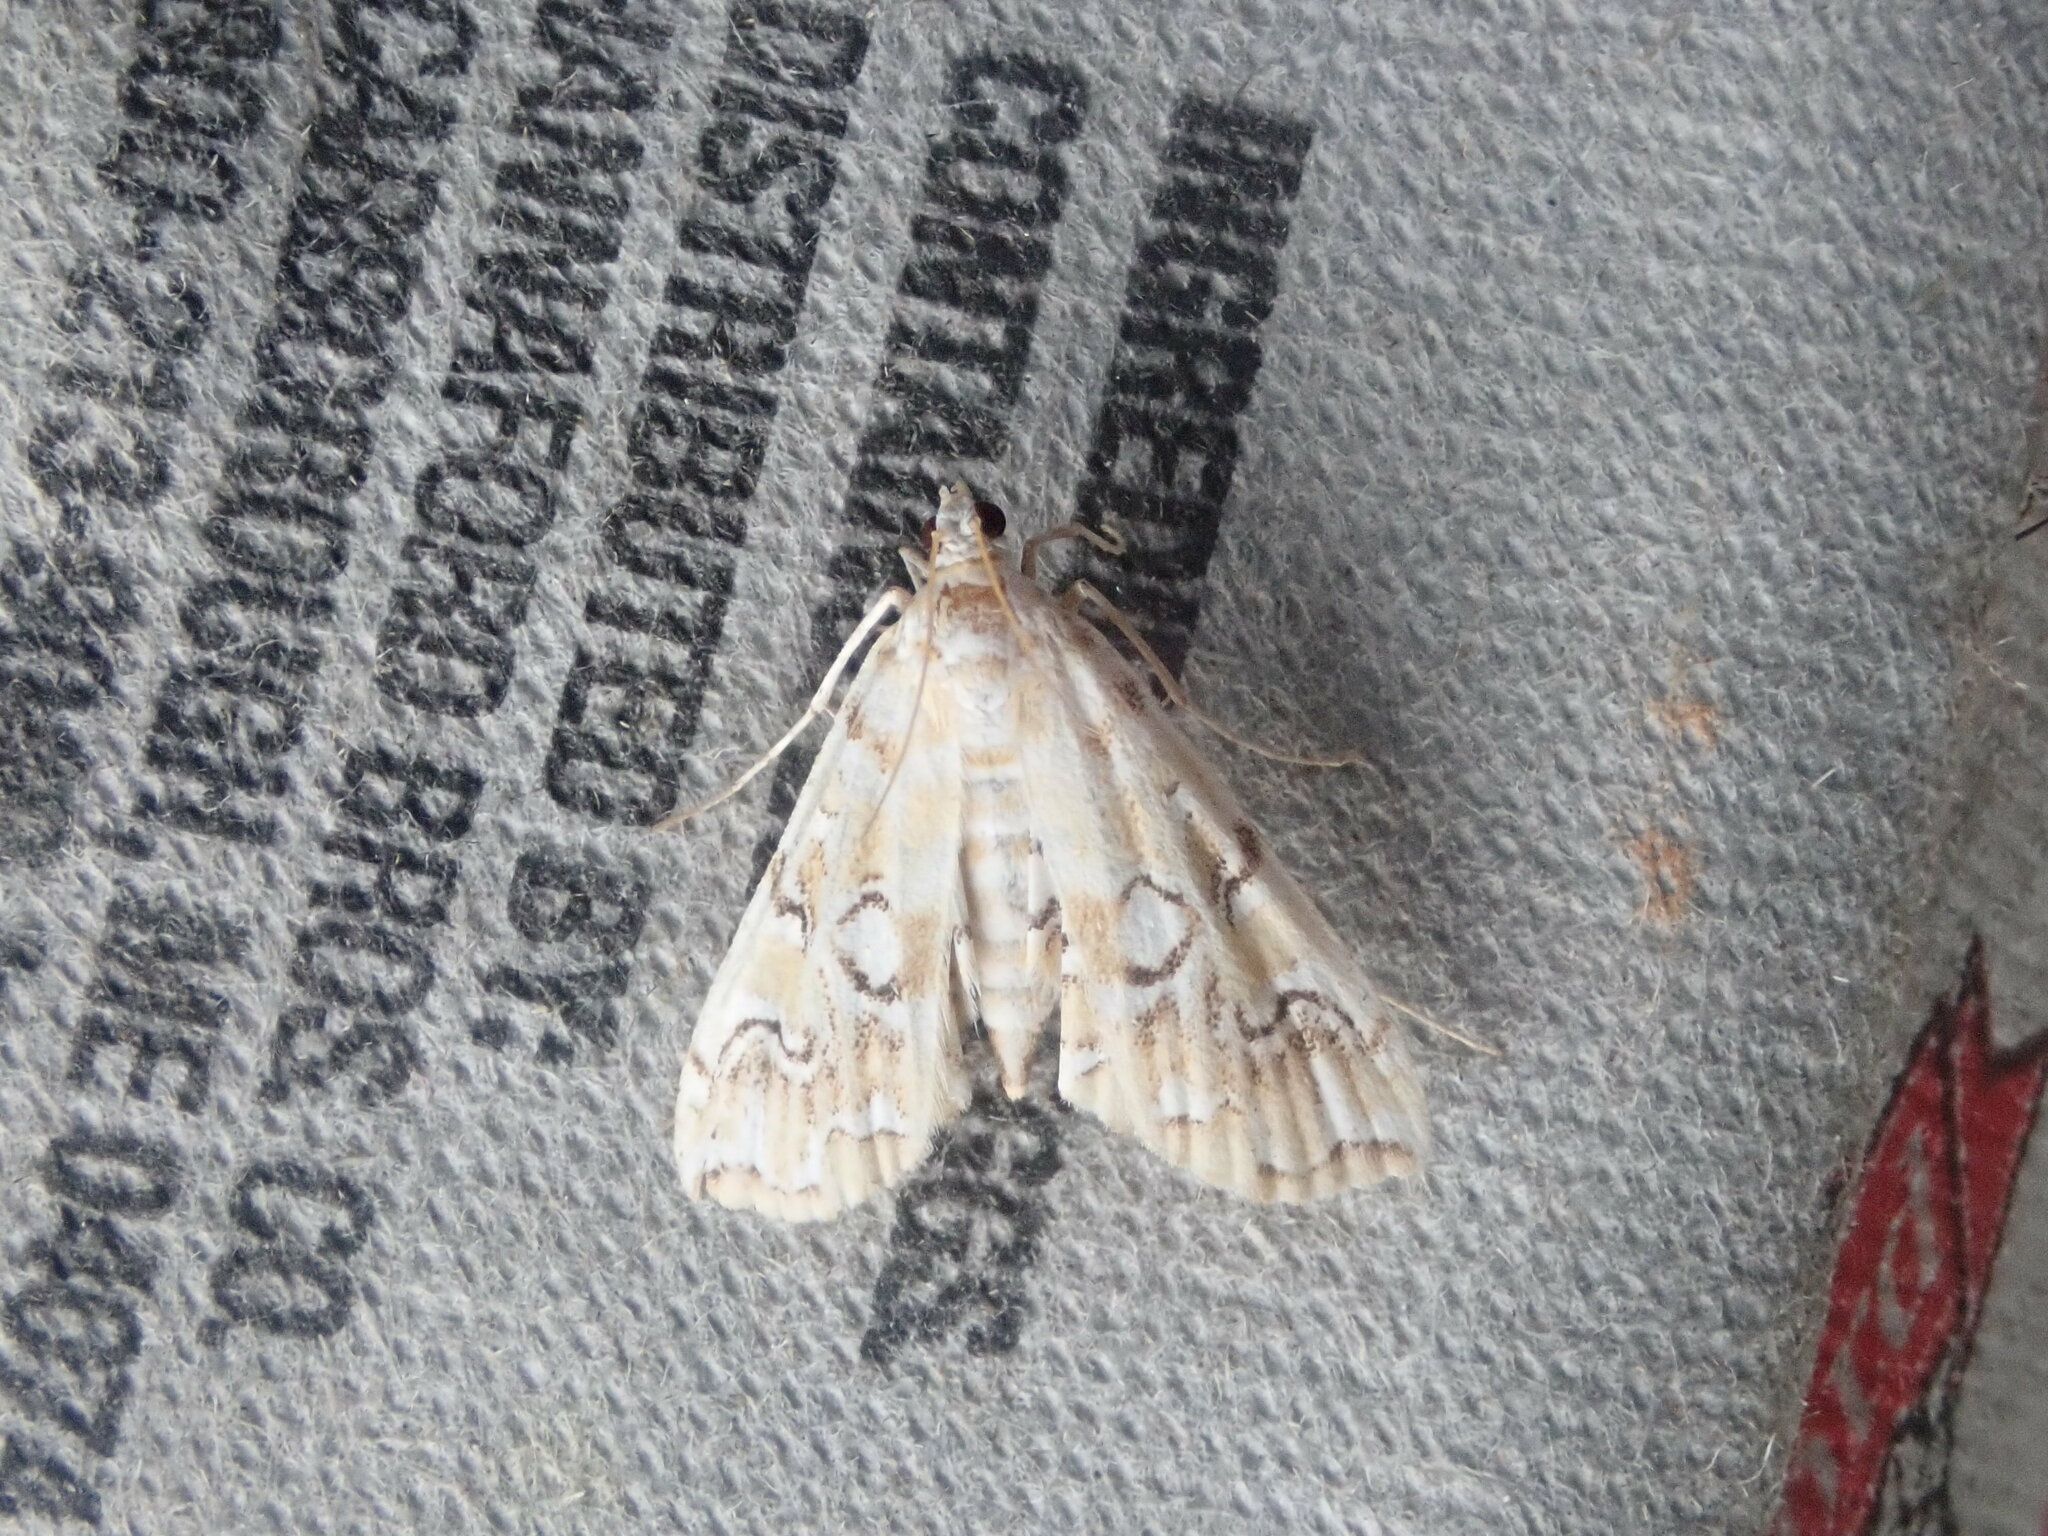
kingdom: Animalia
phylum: Arthropoda
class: Insecta
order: Lepidoptera
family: Crambidae
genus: Elophila
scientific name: Elophila icciusalis
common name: Pondside pyralid moth
